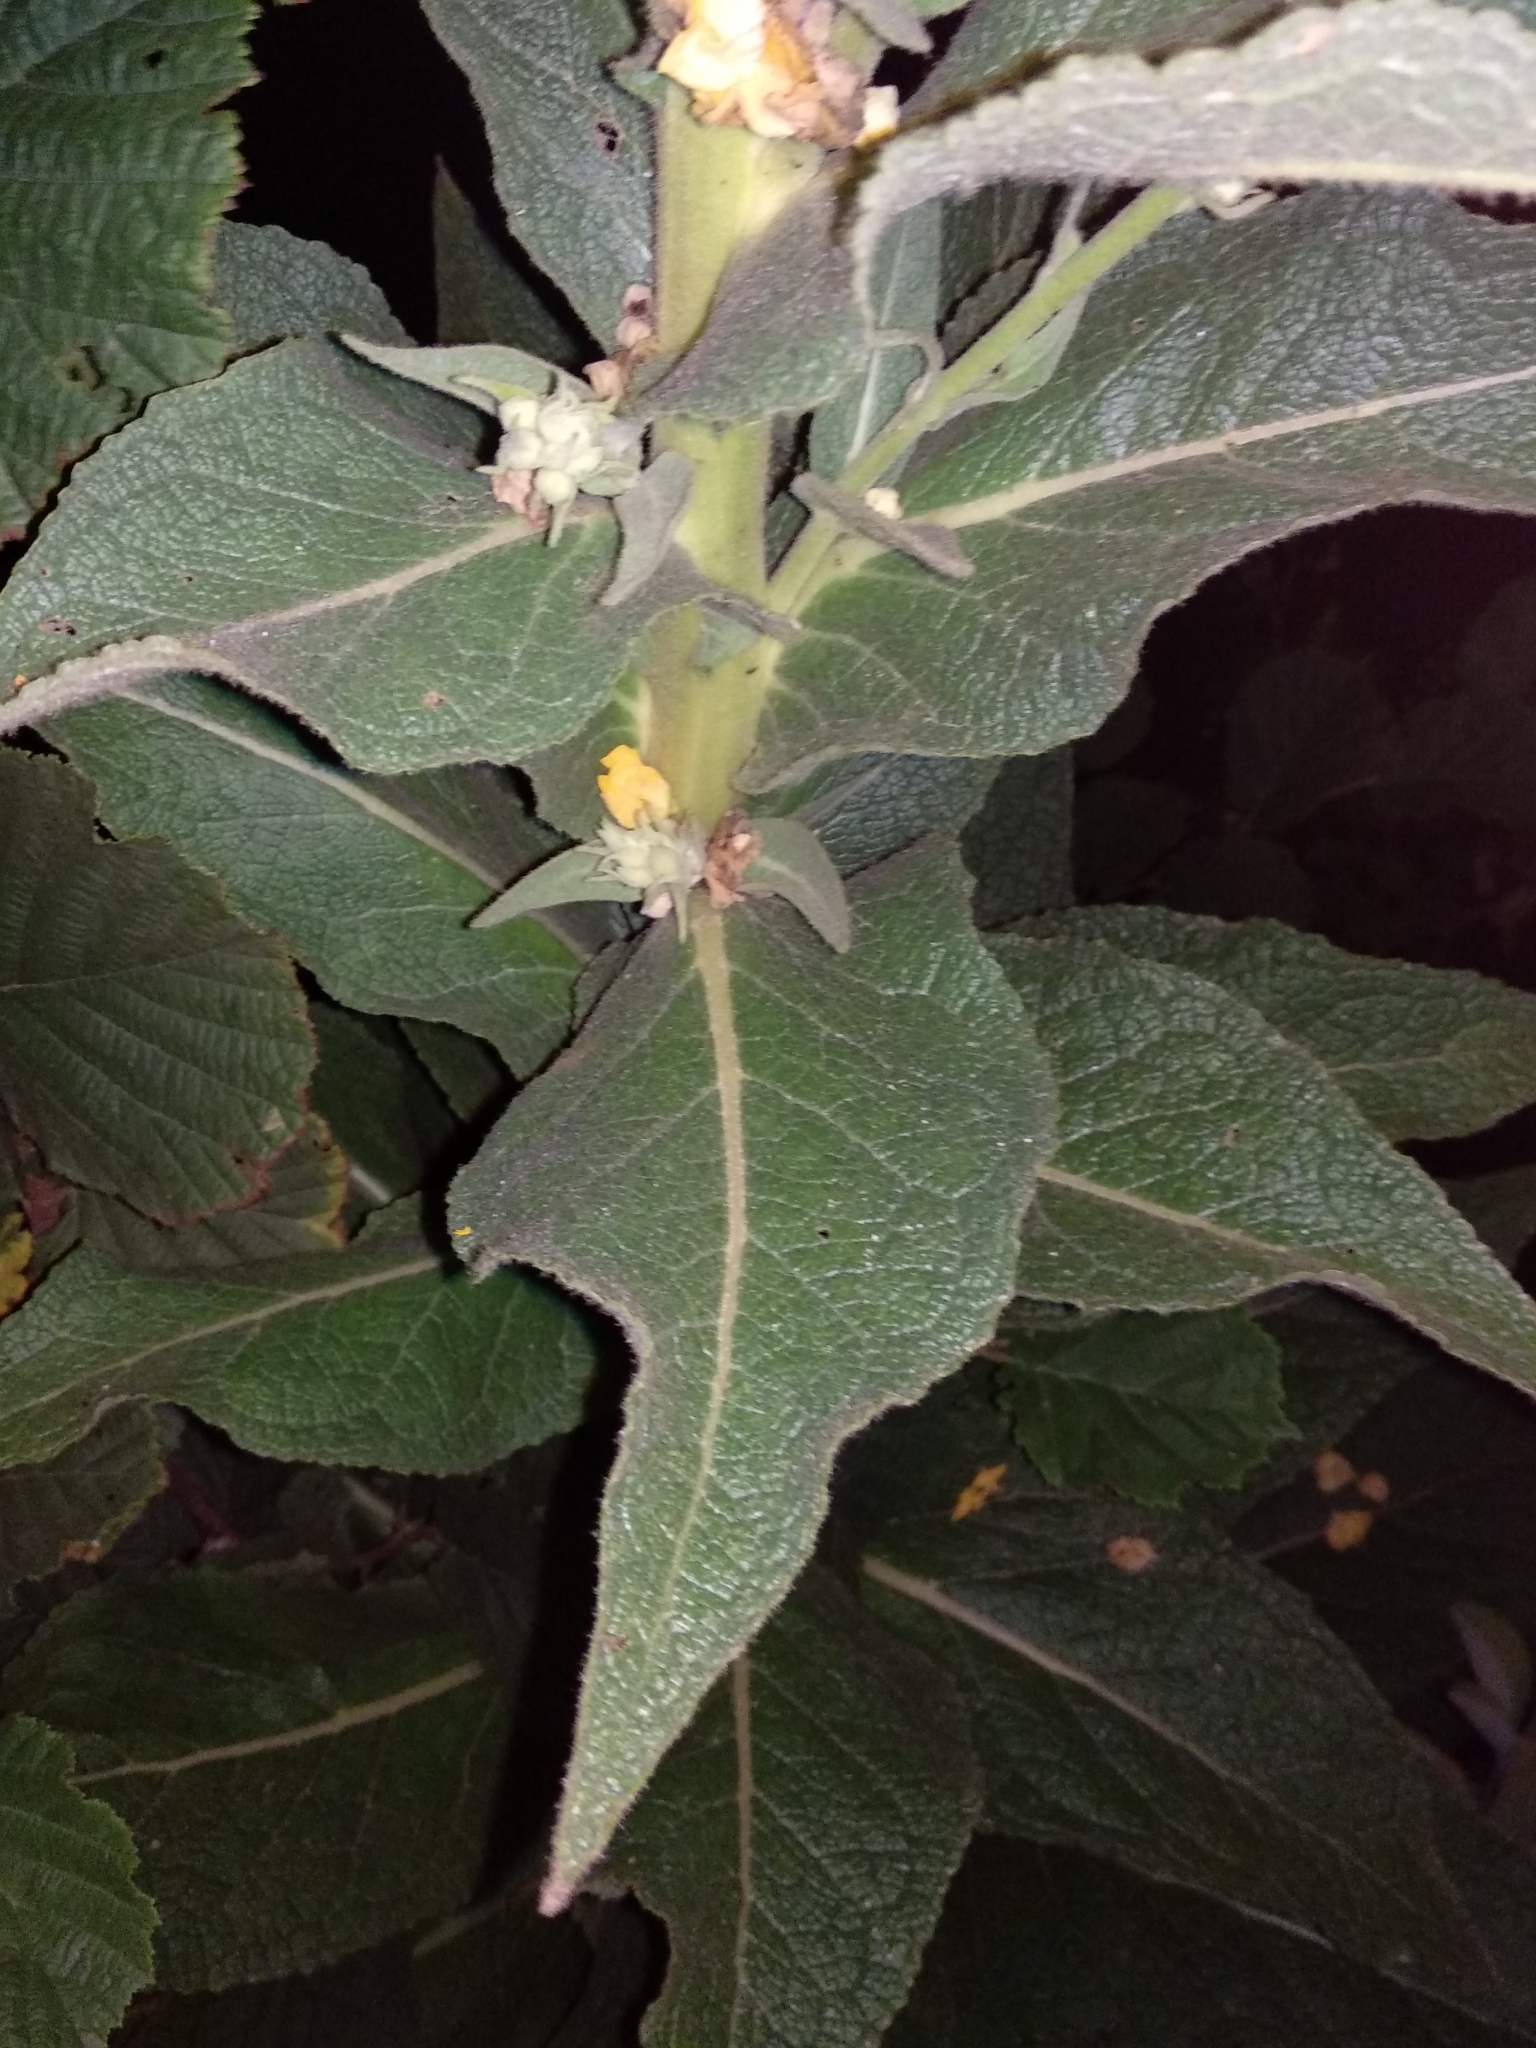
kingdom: Plantae
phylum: Tracheophyta
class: Magnoliopsida
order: Lamiales
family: Scrophulariaceae
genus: Verbascum
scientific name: Verbascum phlomoides
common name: Orange mullein
